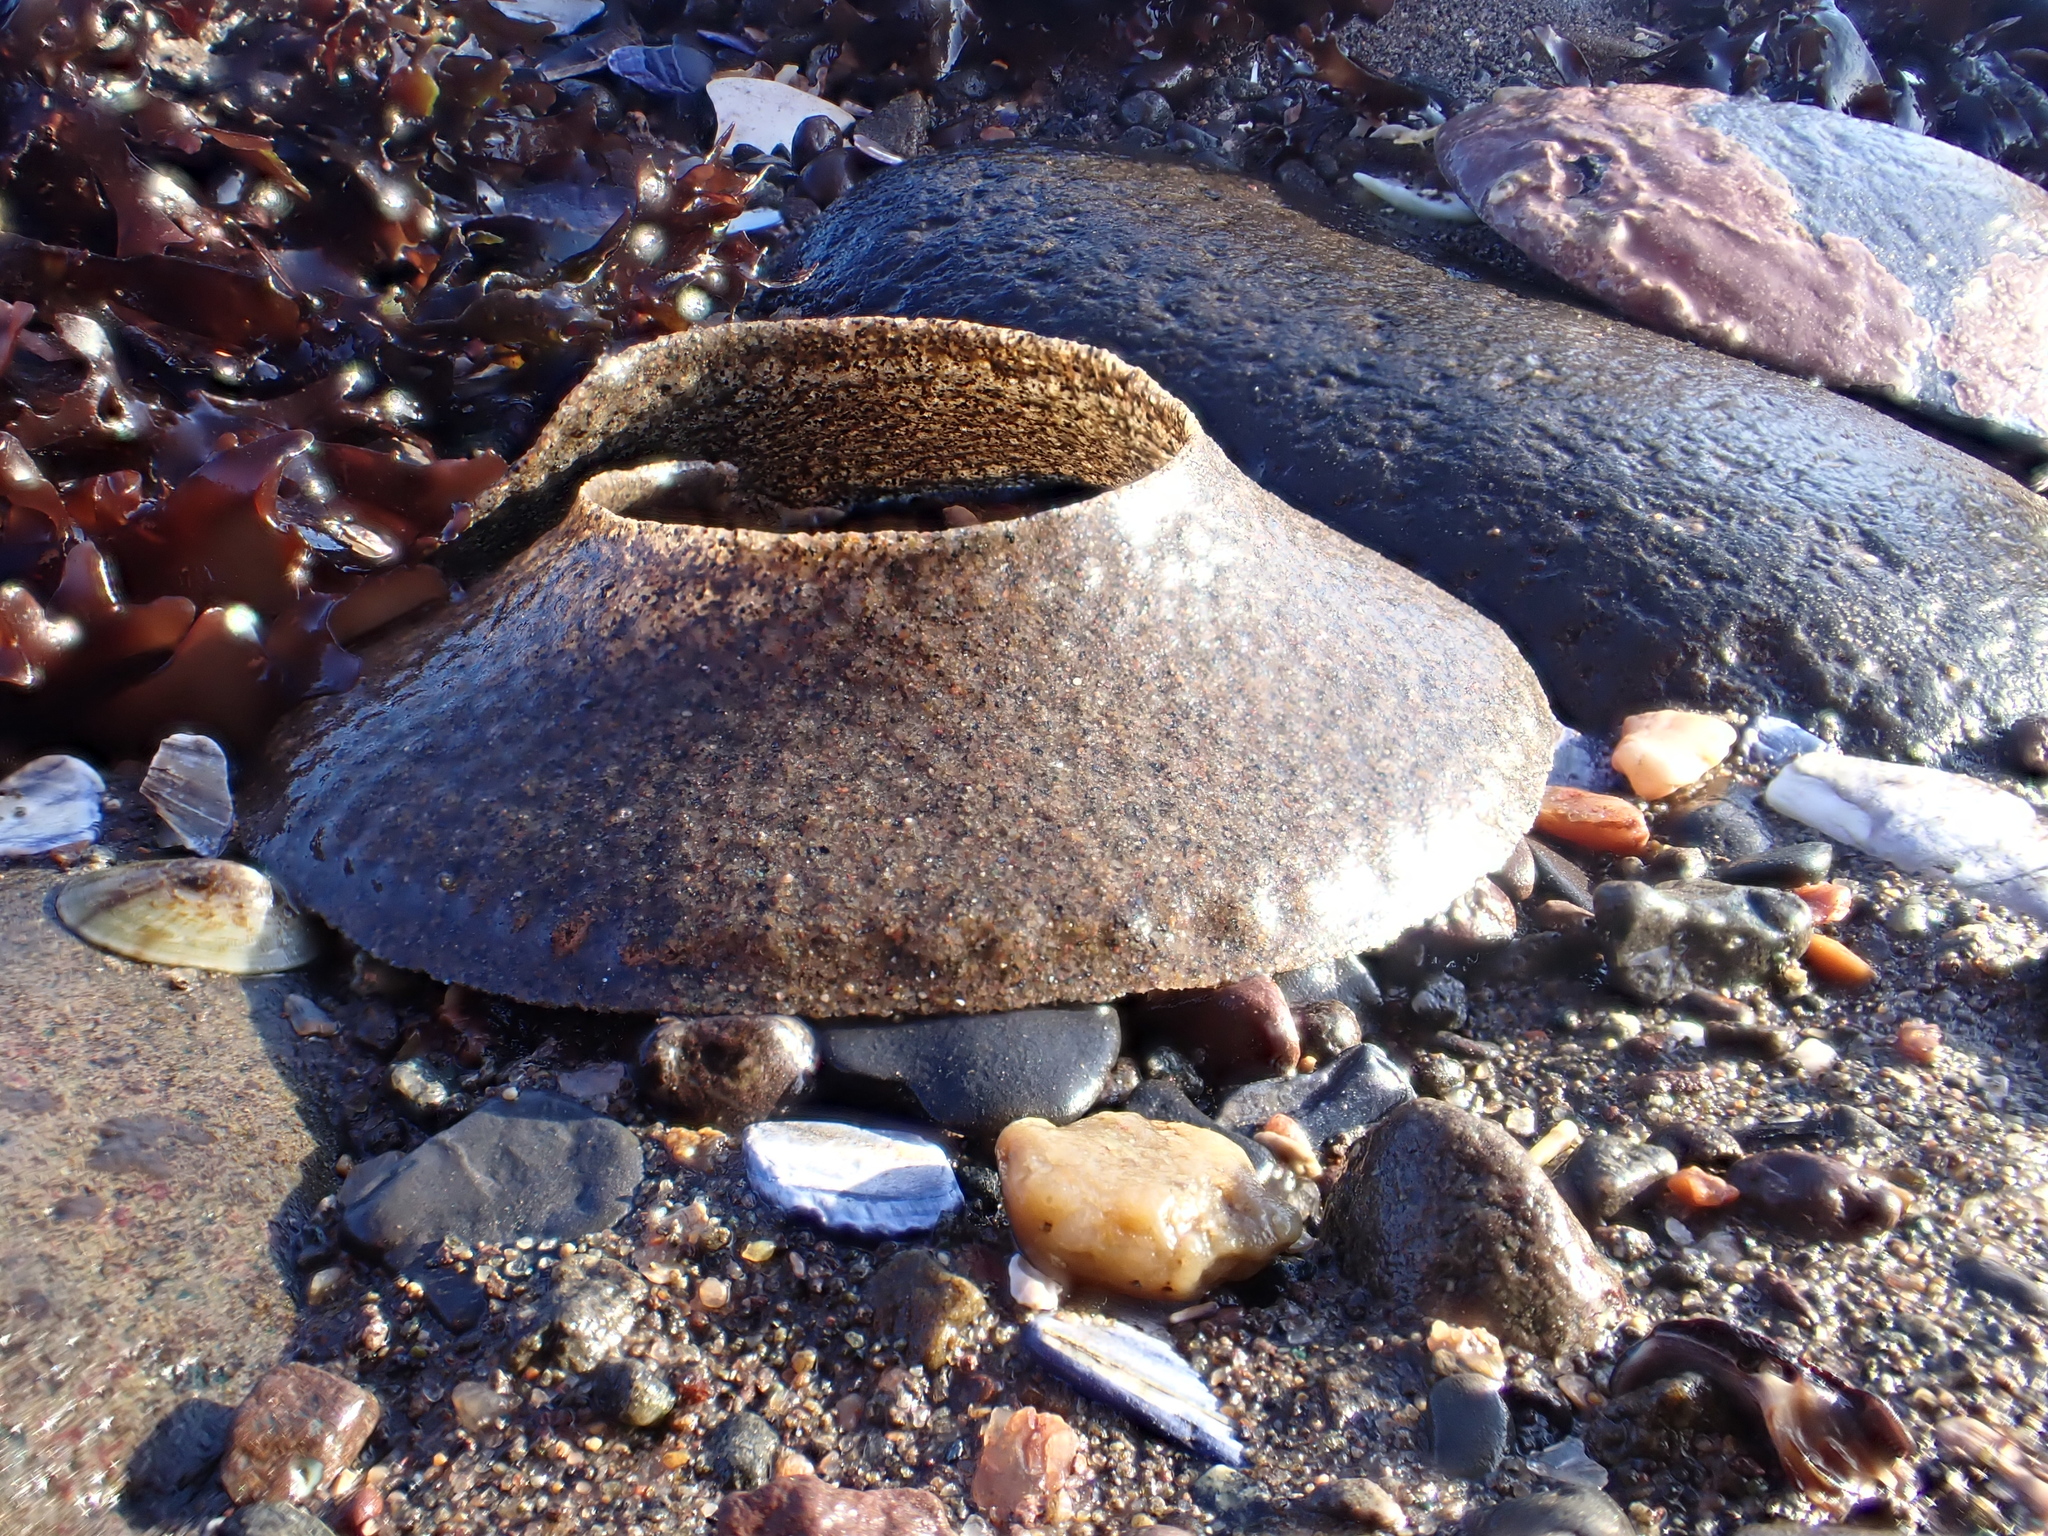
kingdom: Animalia
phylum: Mollusca
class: Gastropoda
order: Littorinimorpha
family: Naticidae
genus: Euspira
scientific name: Euspira heros
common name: Common northern moonsnail
